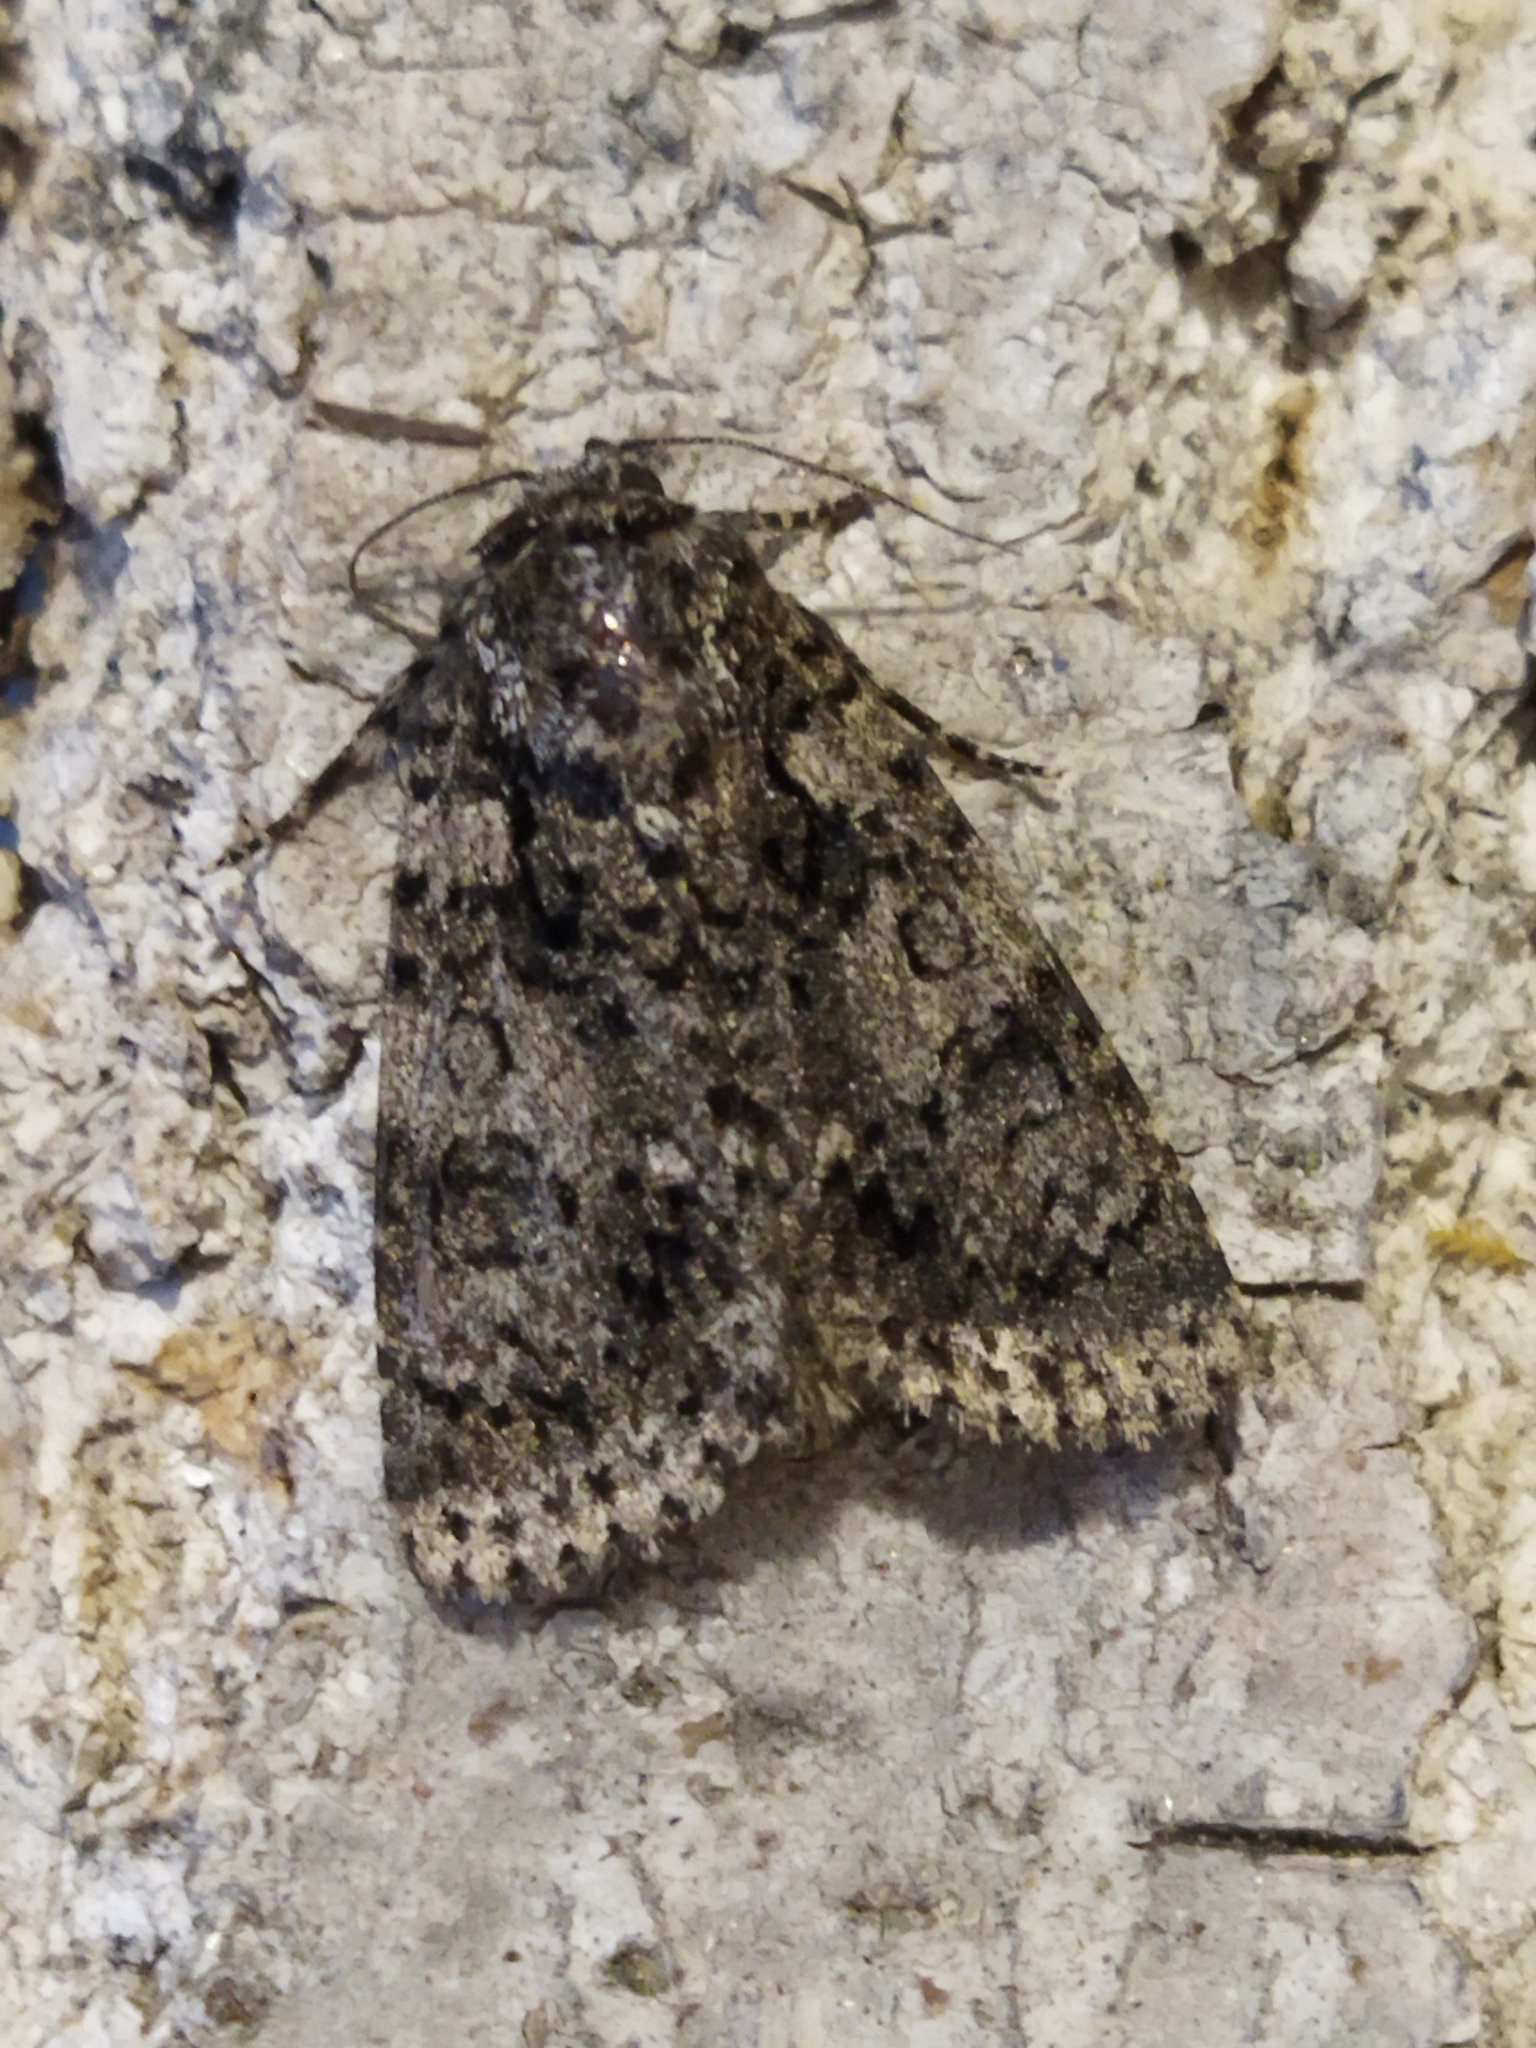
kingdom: Animalia
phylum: Arthropoda
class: Insecta
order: Lepidoptera
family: Noctuidae
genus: Acronicta
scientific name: Acronicta rumicis
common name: Knot grass
